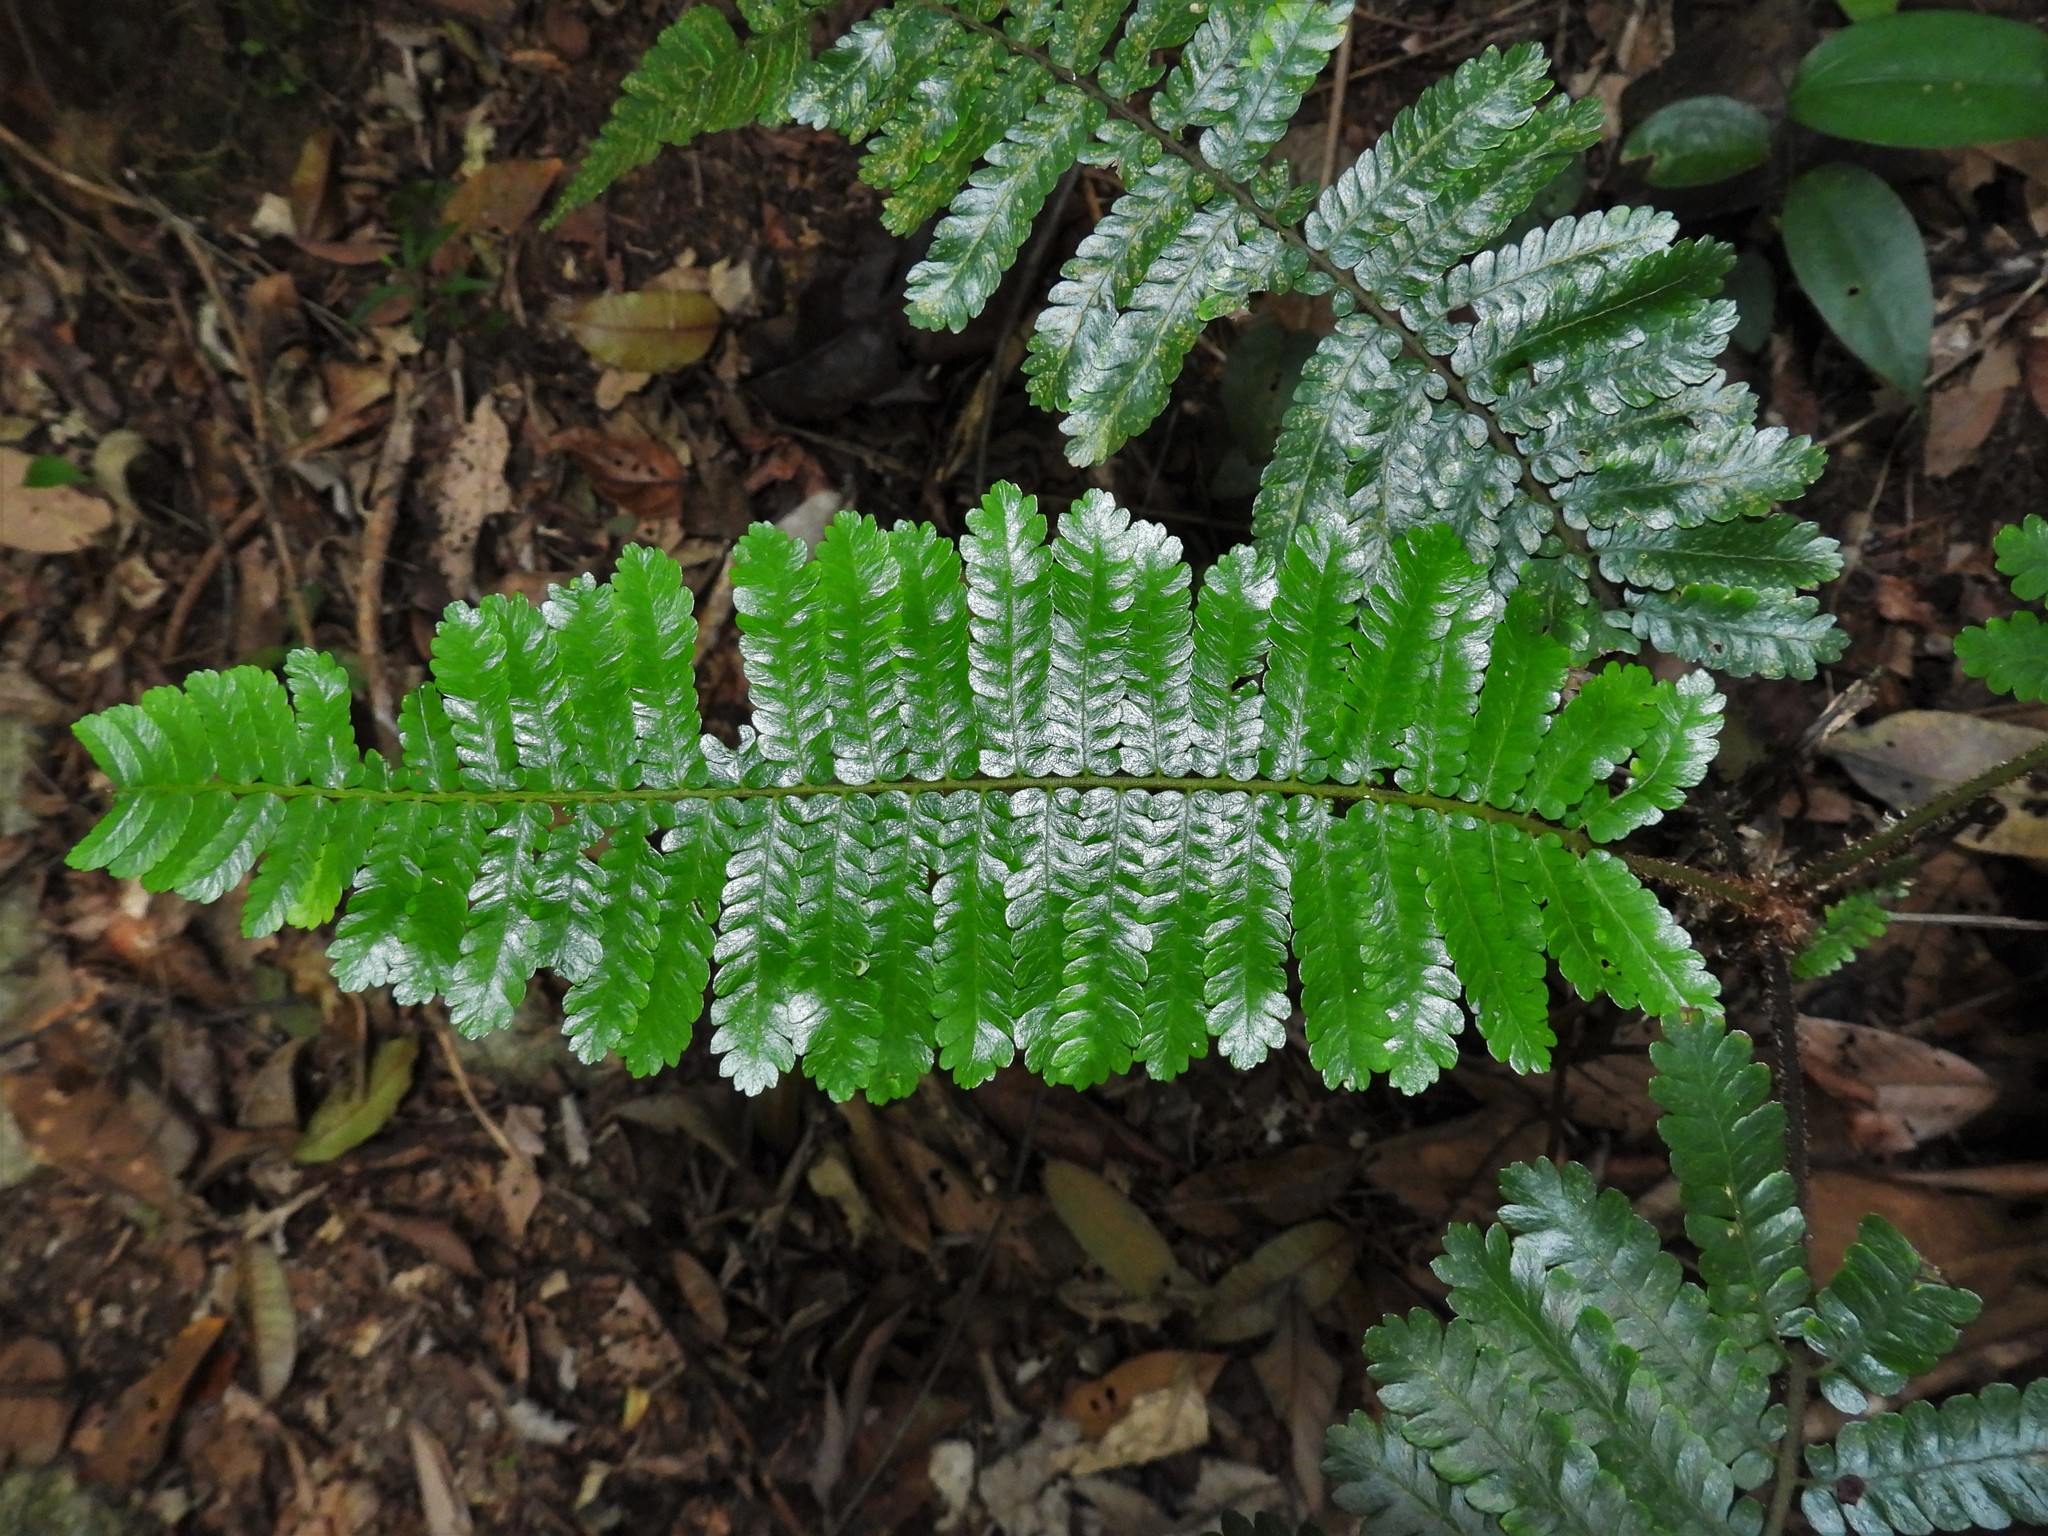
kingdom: Plantae
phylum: Tracheophyta
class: Polypodiopsida
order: Cyatheales
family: Cyatheaceae
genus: Sphaeropteris
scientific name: Sphaeropteris squamulata
